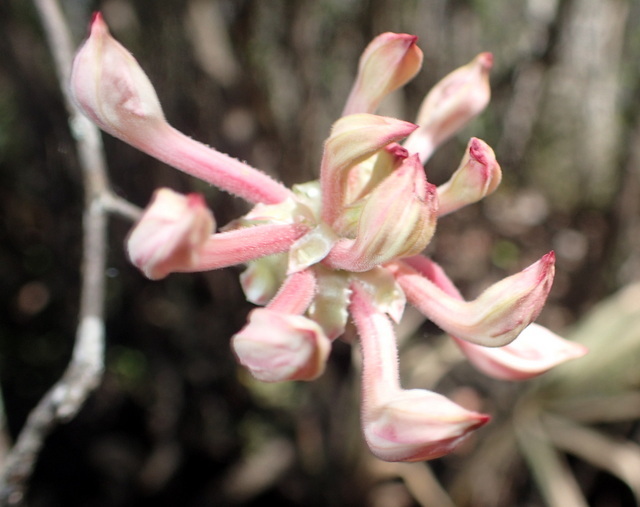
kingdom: Plantae
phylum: Tracheophyta
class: Magnoliopsida
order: Ericales
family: Ericaceae
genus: Rhododendron
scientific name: Rhododendron canescens
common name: Mountain azalea
